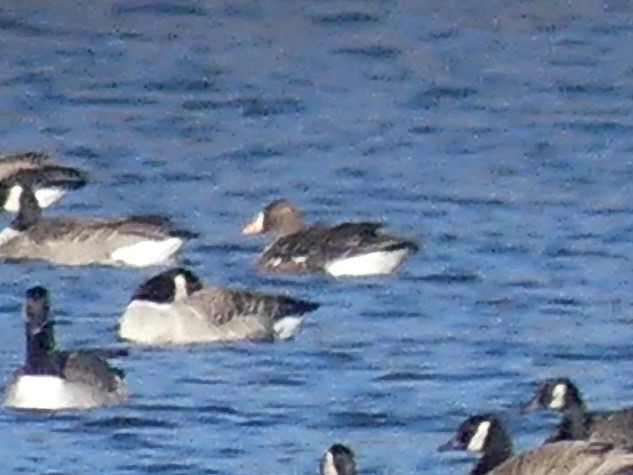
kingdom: Animalia
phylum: Chordata
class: Aves
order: Anseriformes
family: Anatidae
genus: Anser
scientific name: Anser albifrons
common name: Greater white-fronted goose
